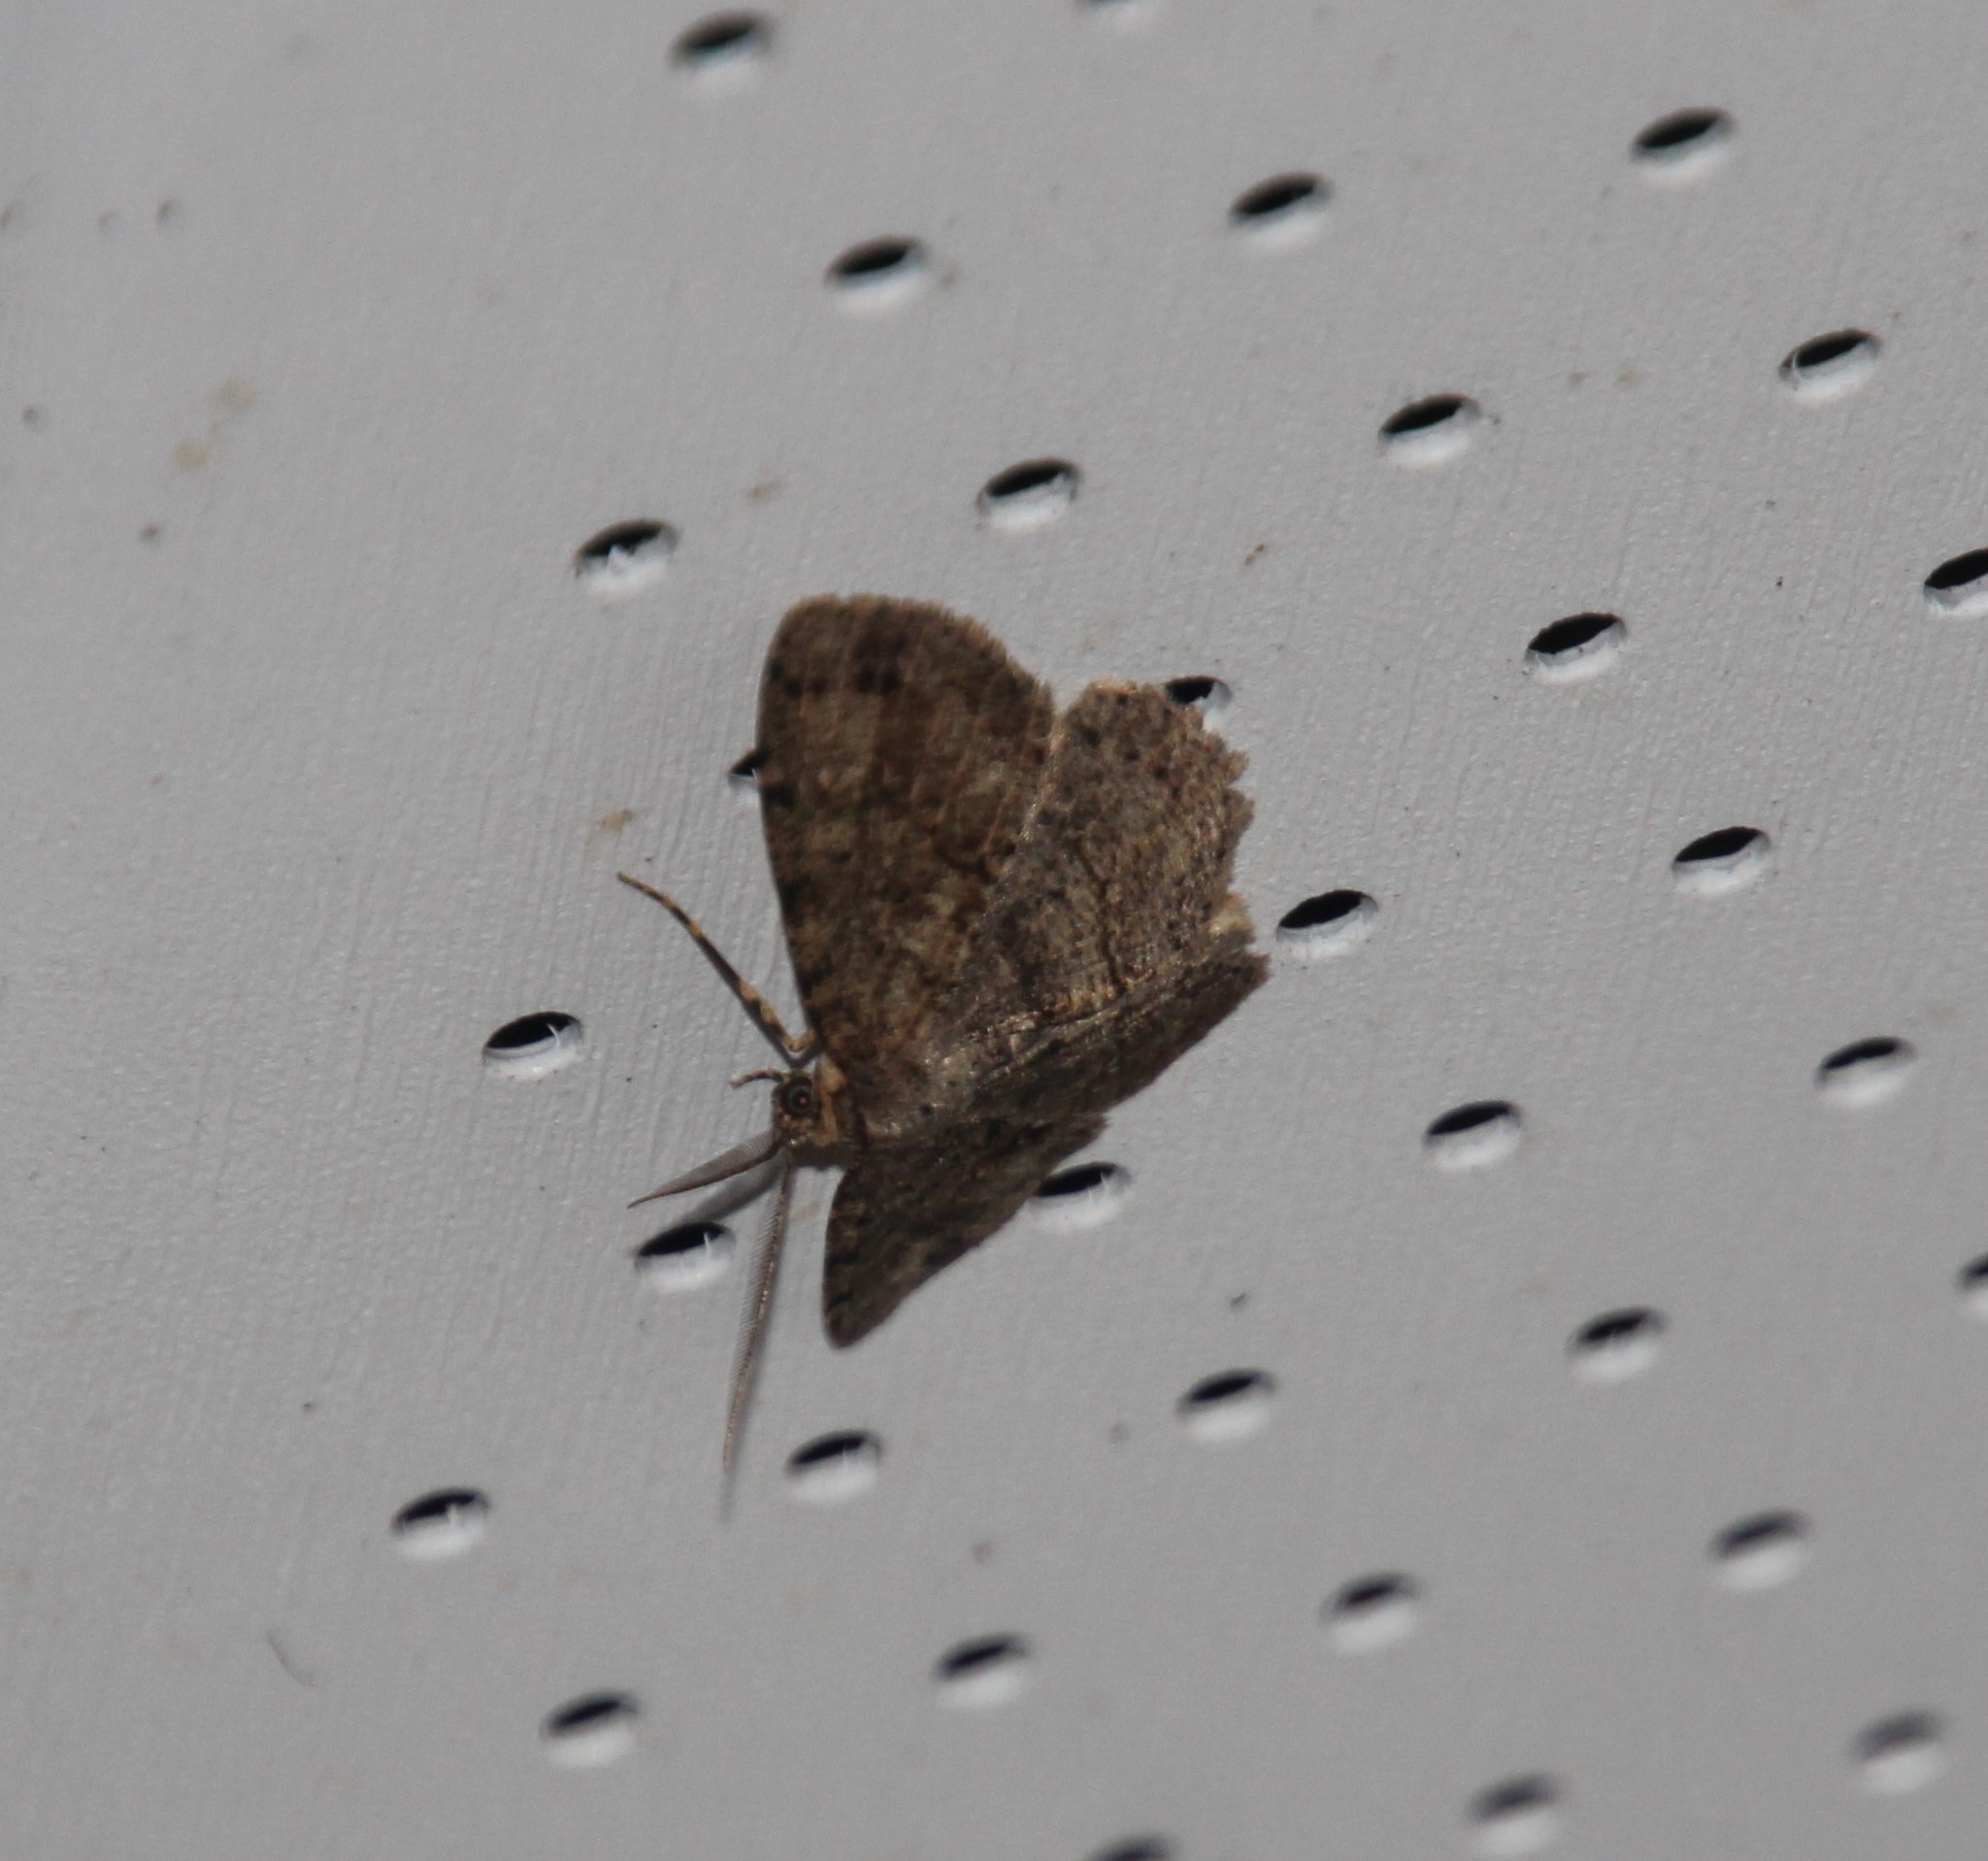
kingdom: Animalia
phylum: Arthropoda
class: Insecta
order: Lepidoptera
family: Geometridae
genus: Melanolophia
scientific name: Melanolophia canadaria
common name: Canadian melanolophia
